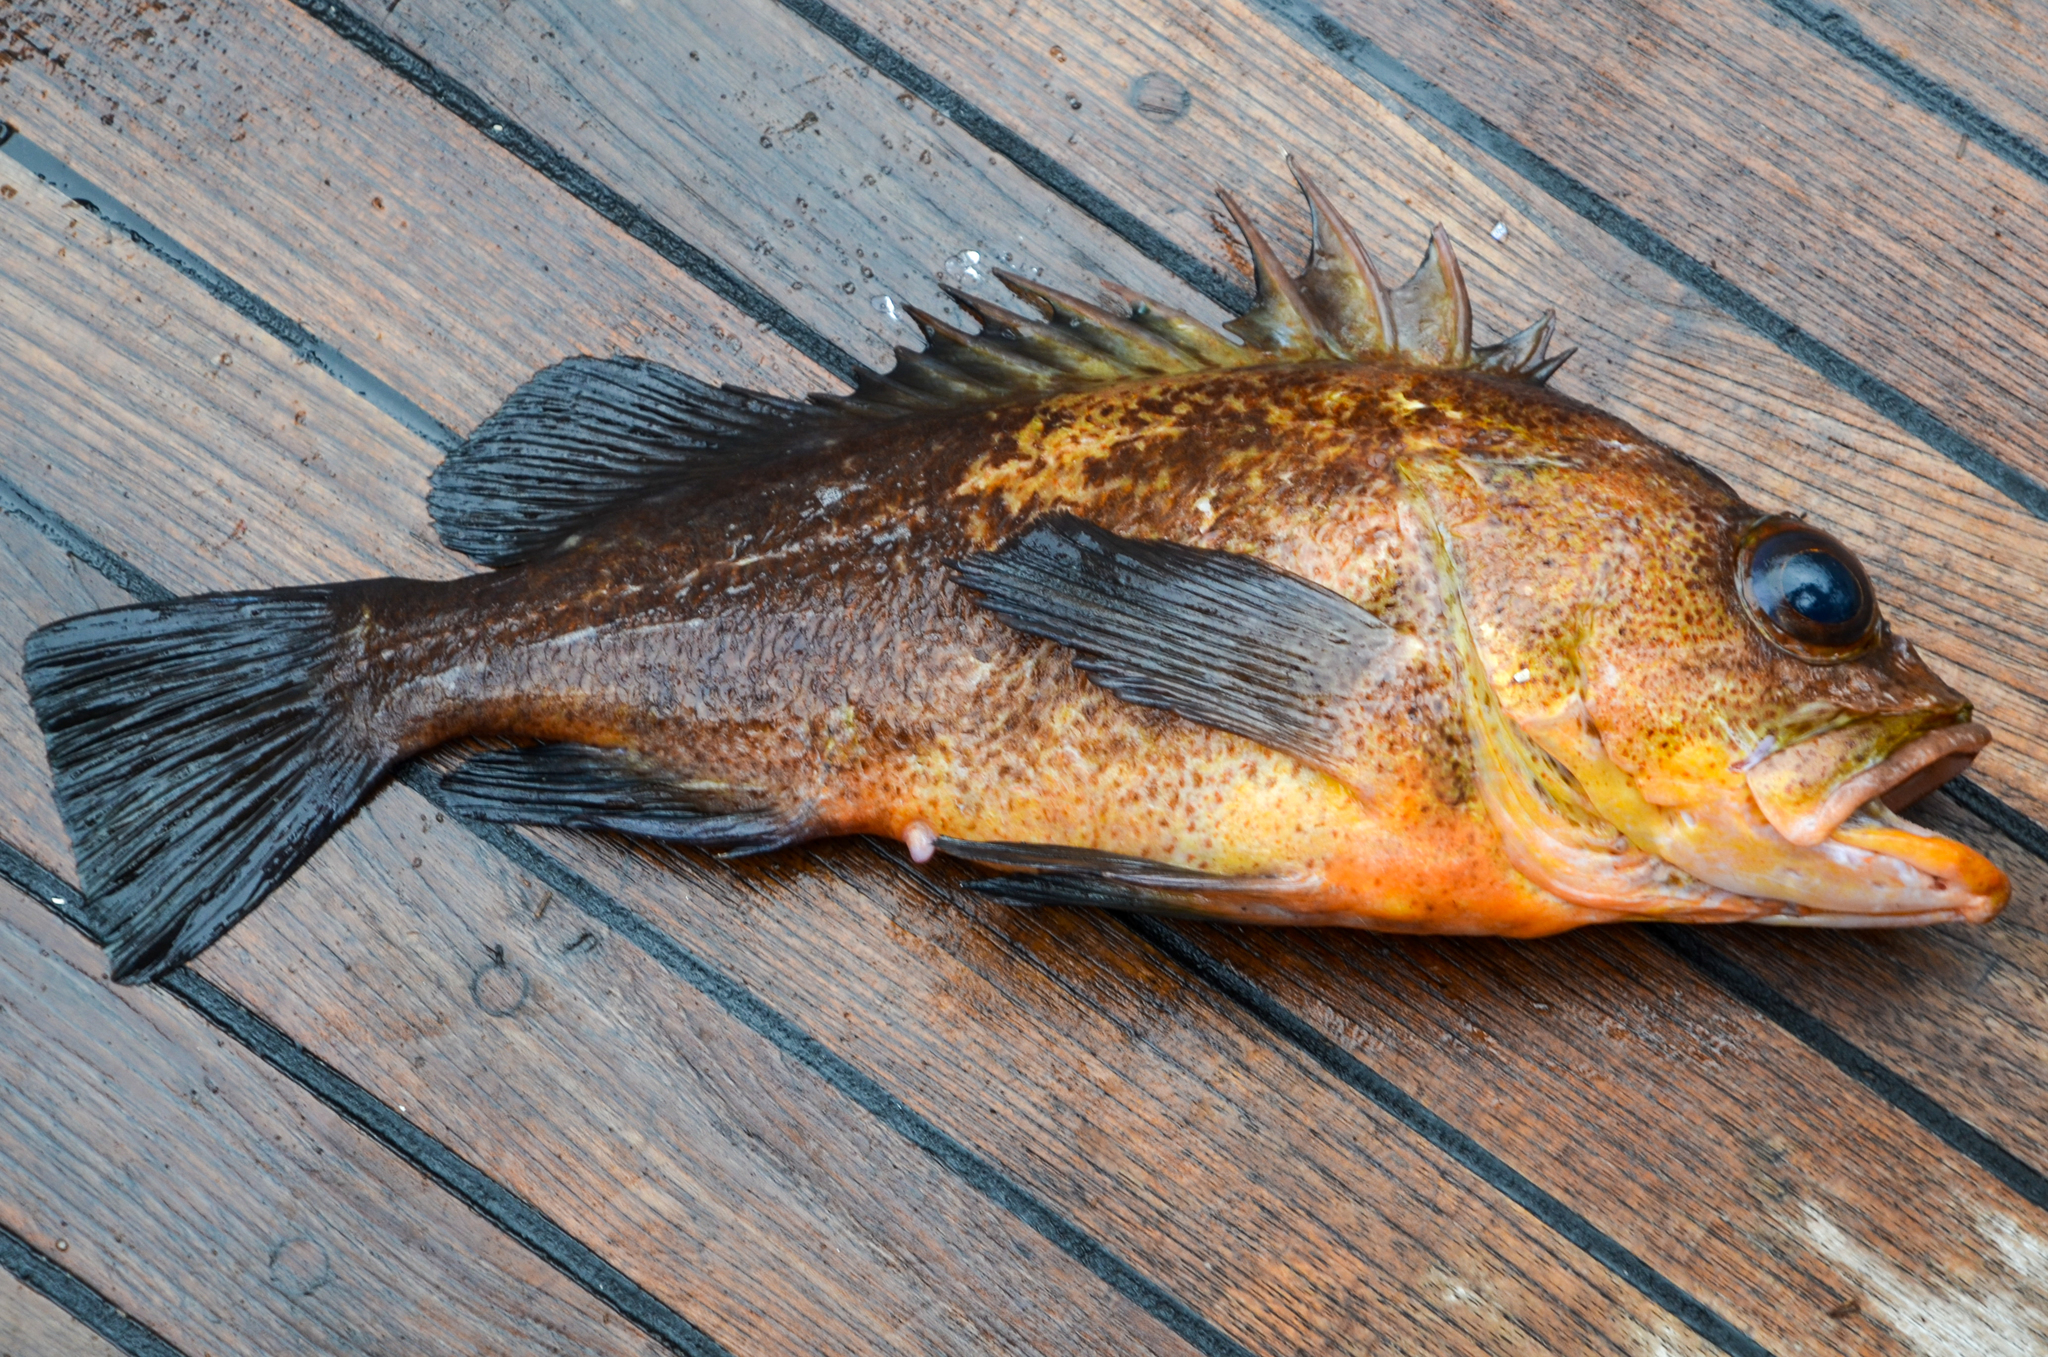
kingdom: Animalia
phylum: Chordata
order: Scorpaeniformes
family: Sebastidae
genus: Sebastes
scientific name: Sebastes maliger
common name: Quillback rockfish
